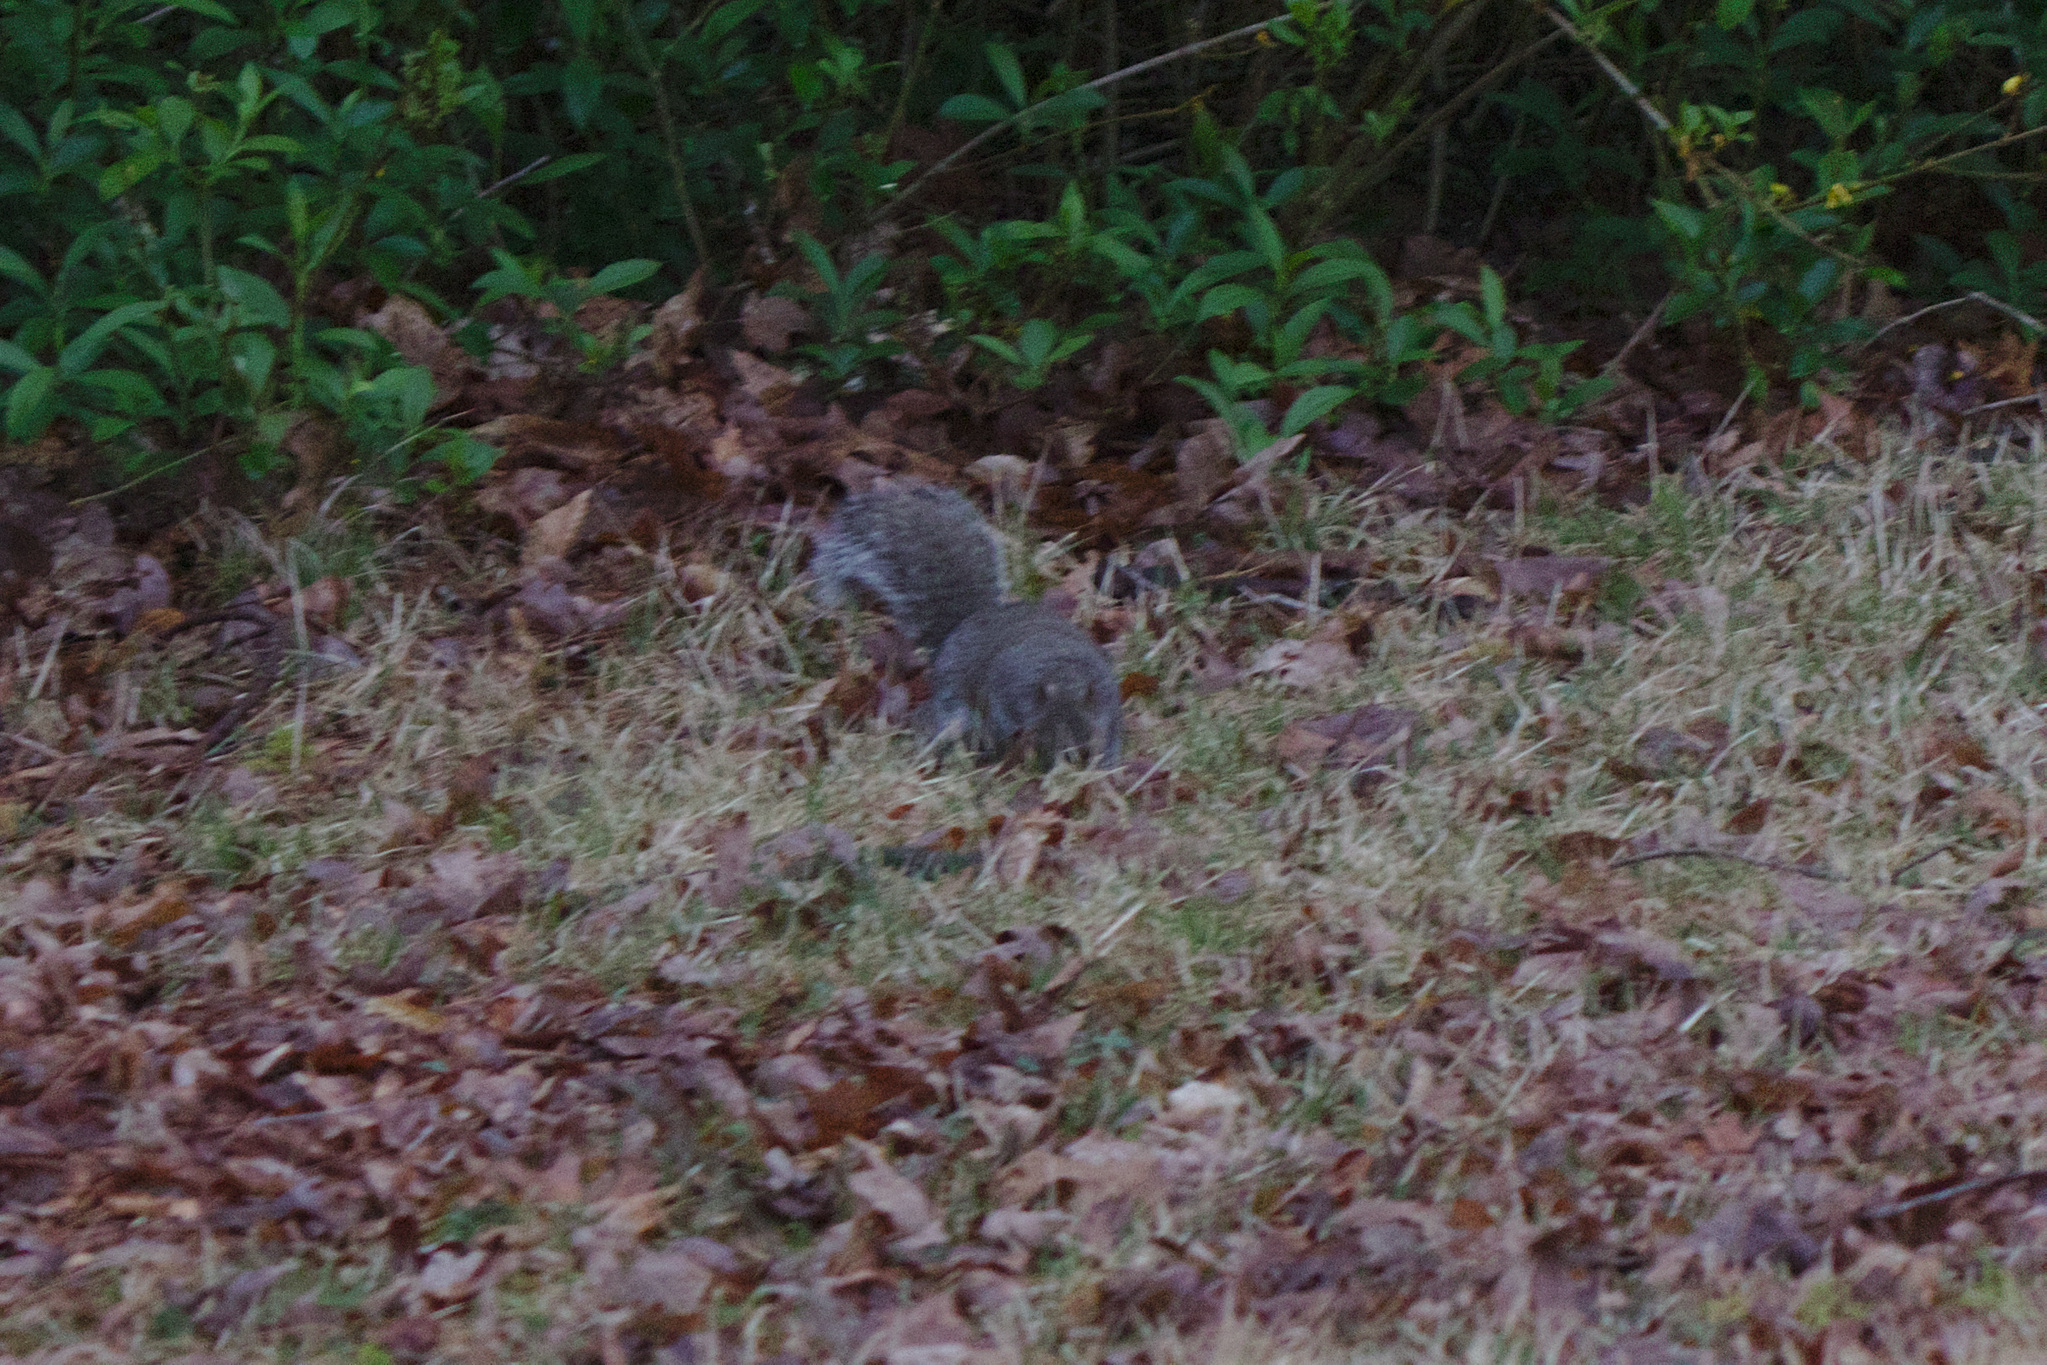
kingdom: Animalia
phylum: Chordata
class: Mammalia
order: Rodentia
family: Sciuridae
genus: Sciurus
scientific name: Sciurus carolinensis
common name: Eastern gray squirrel
